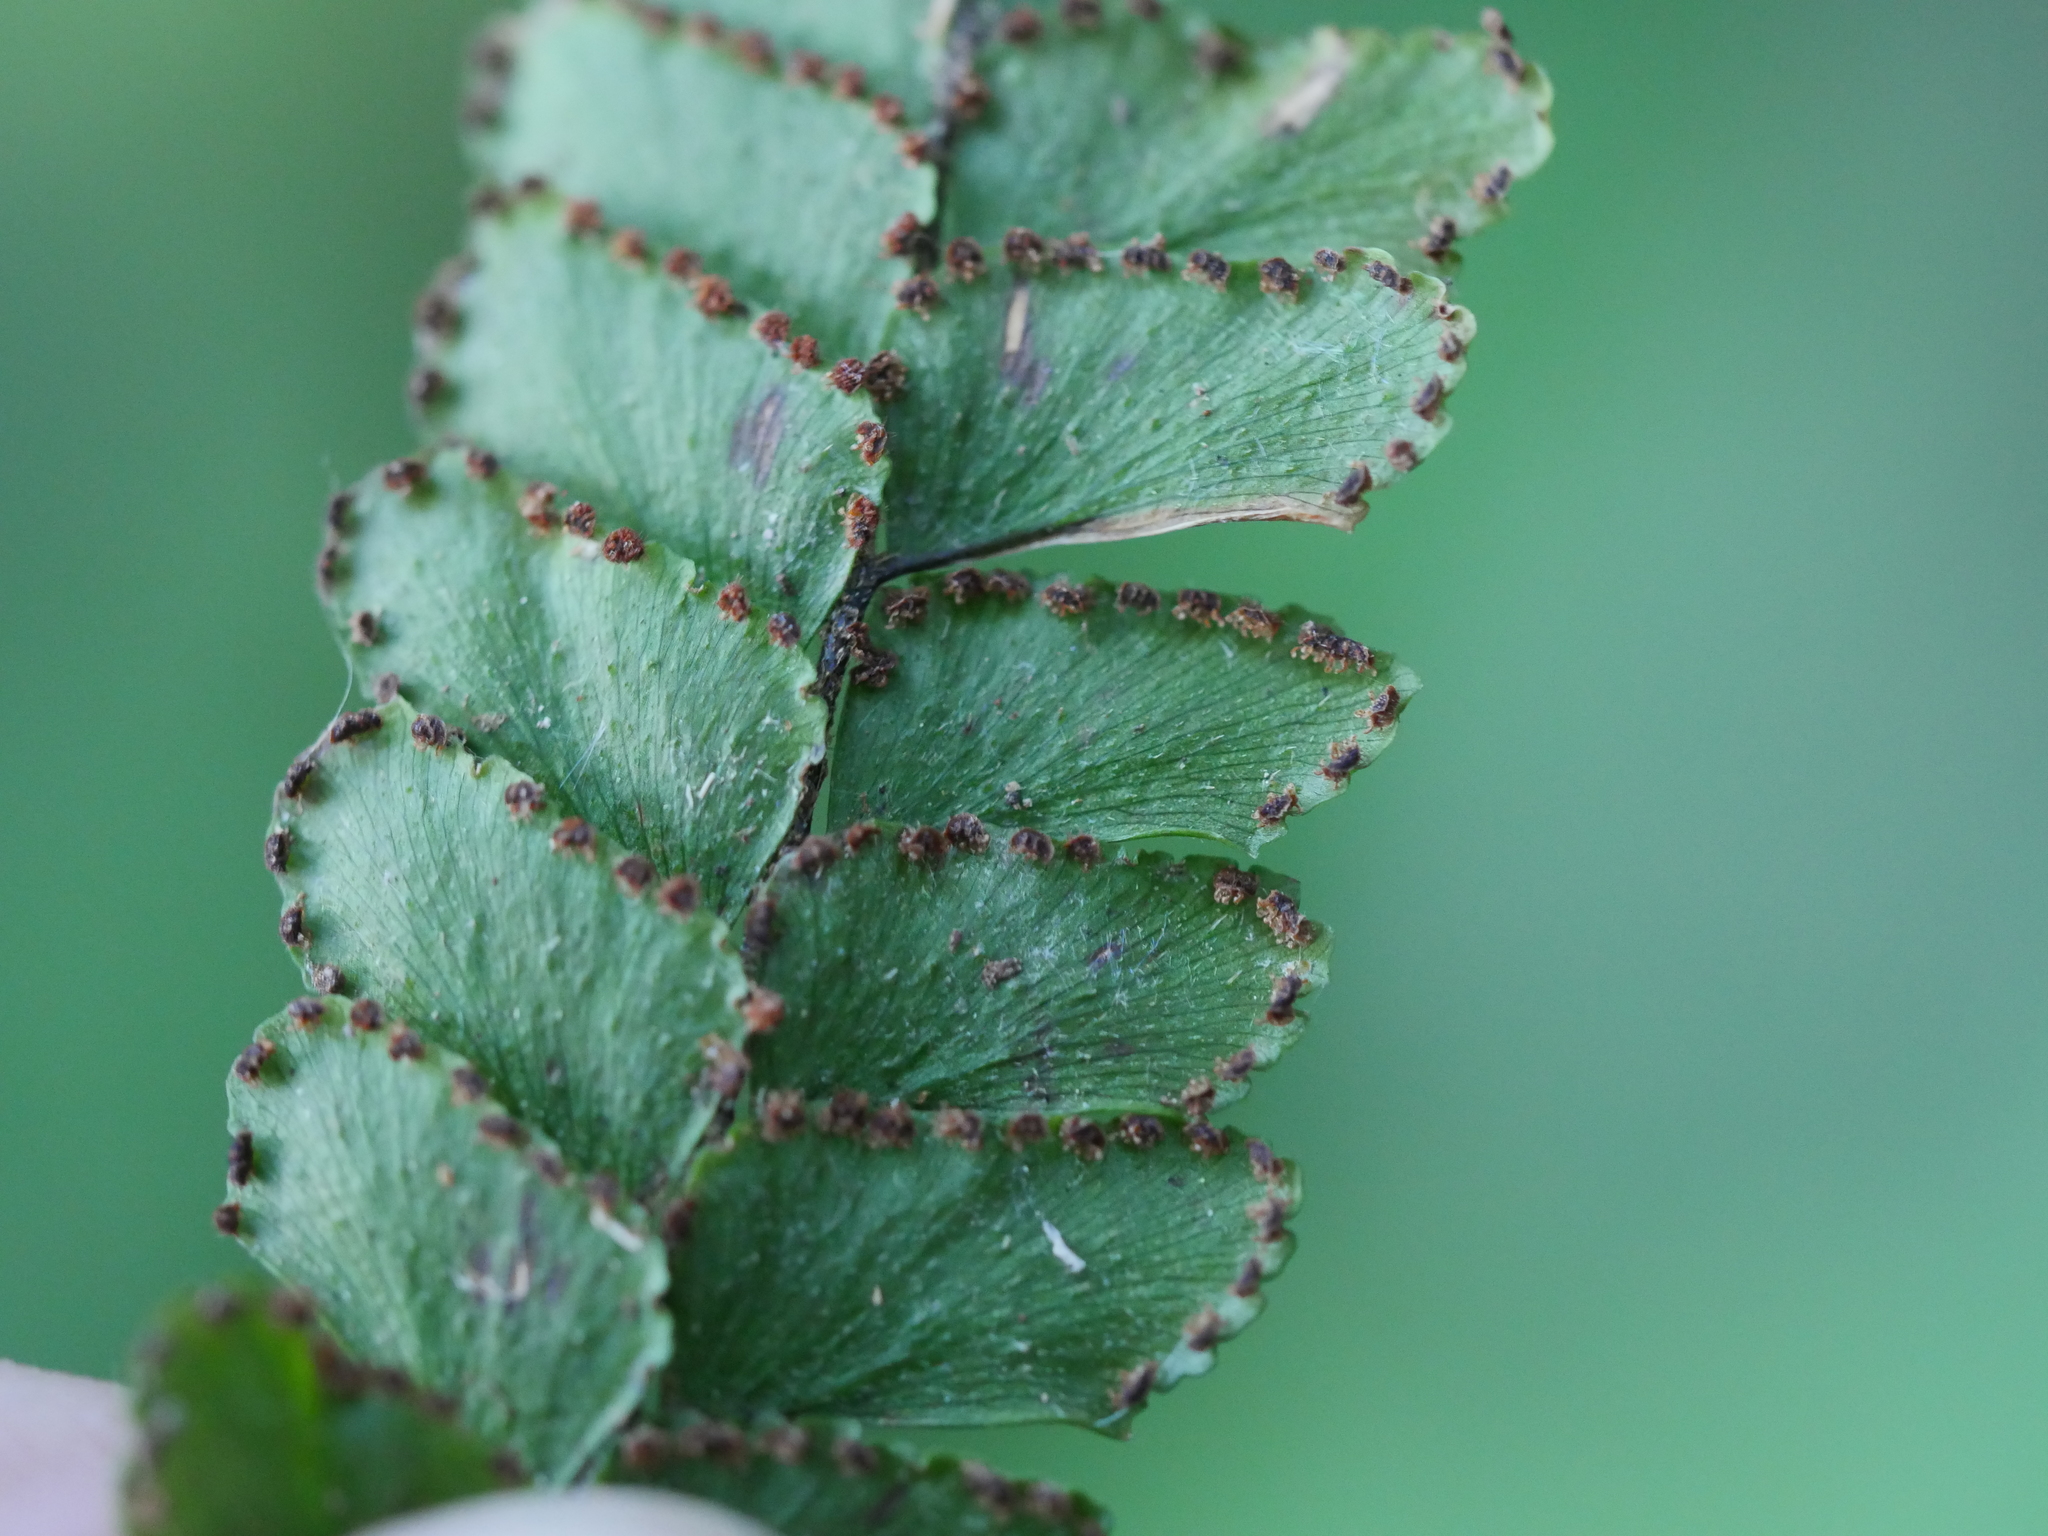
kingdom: Plantae
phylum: Tracheophyta
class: Polypodiopsida
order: Polypodiales
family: Pteridaceae
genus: Adiantum
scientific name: Adiantum hispidulum
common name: Rough maidenhair
